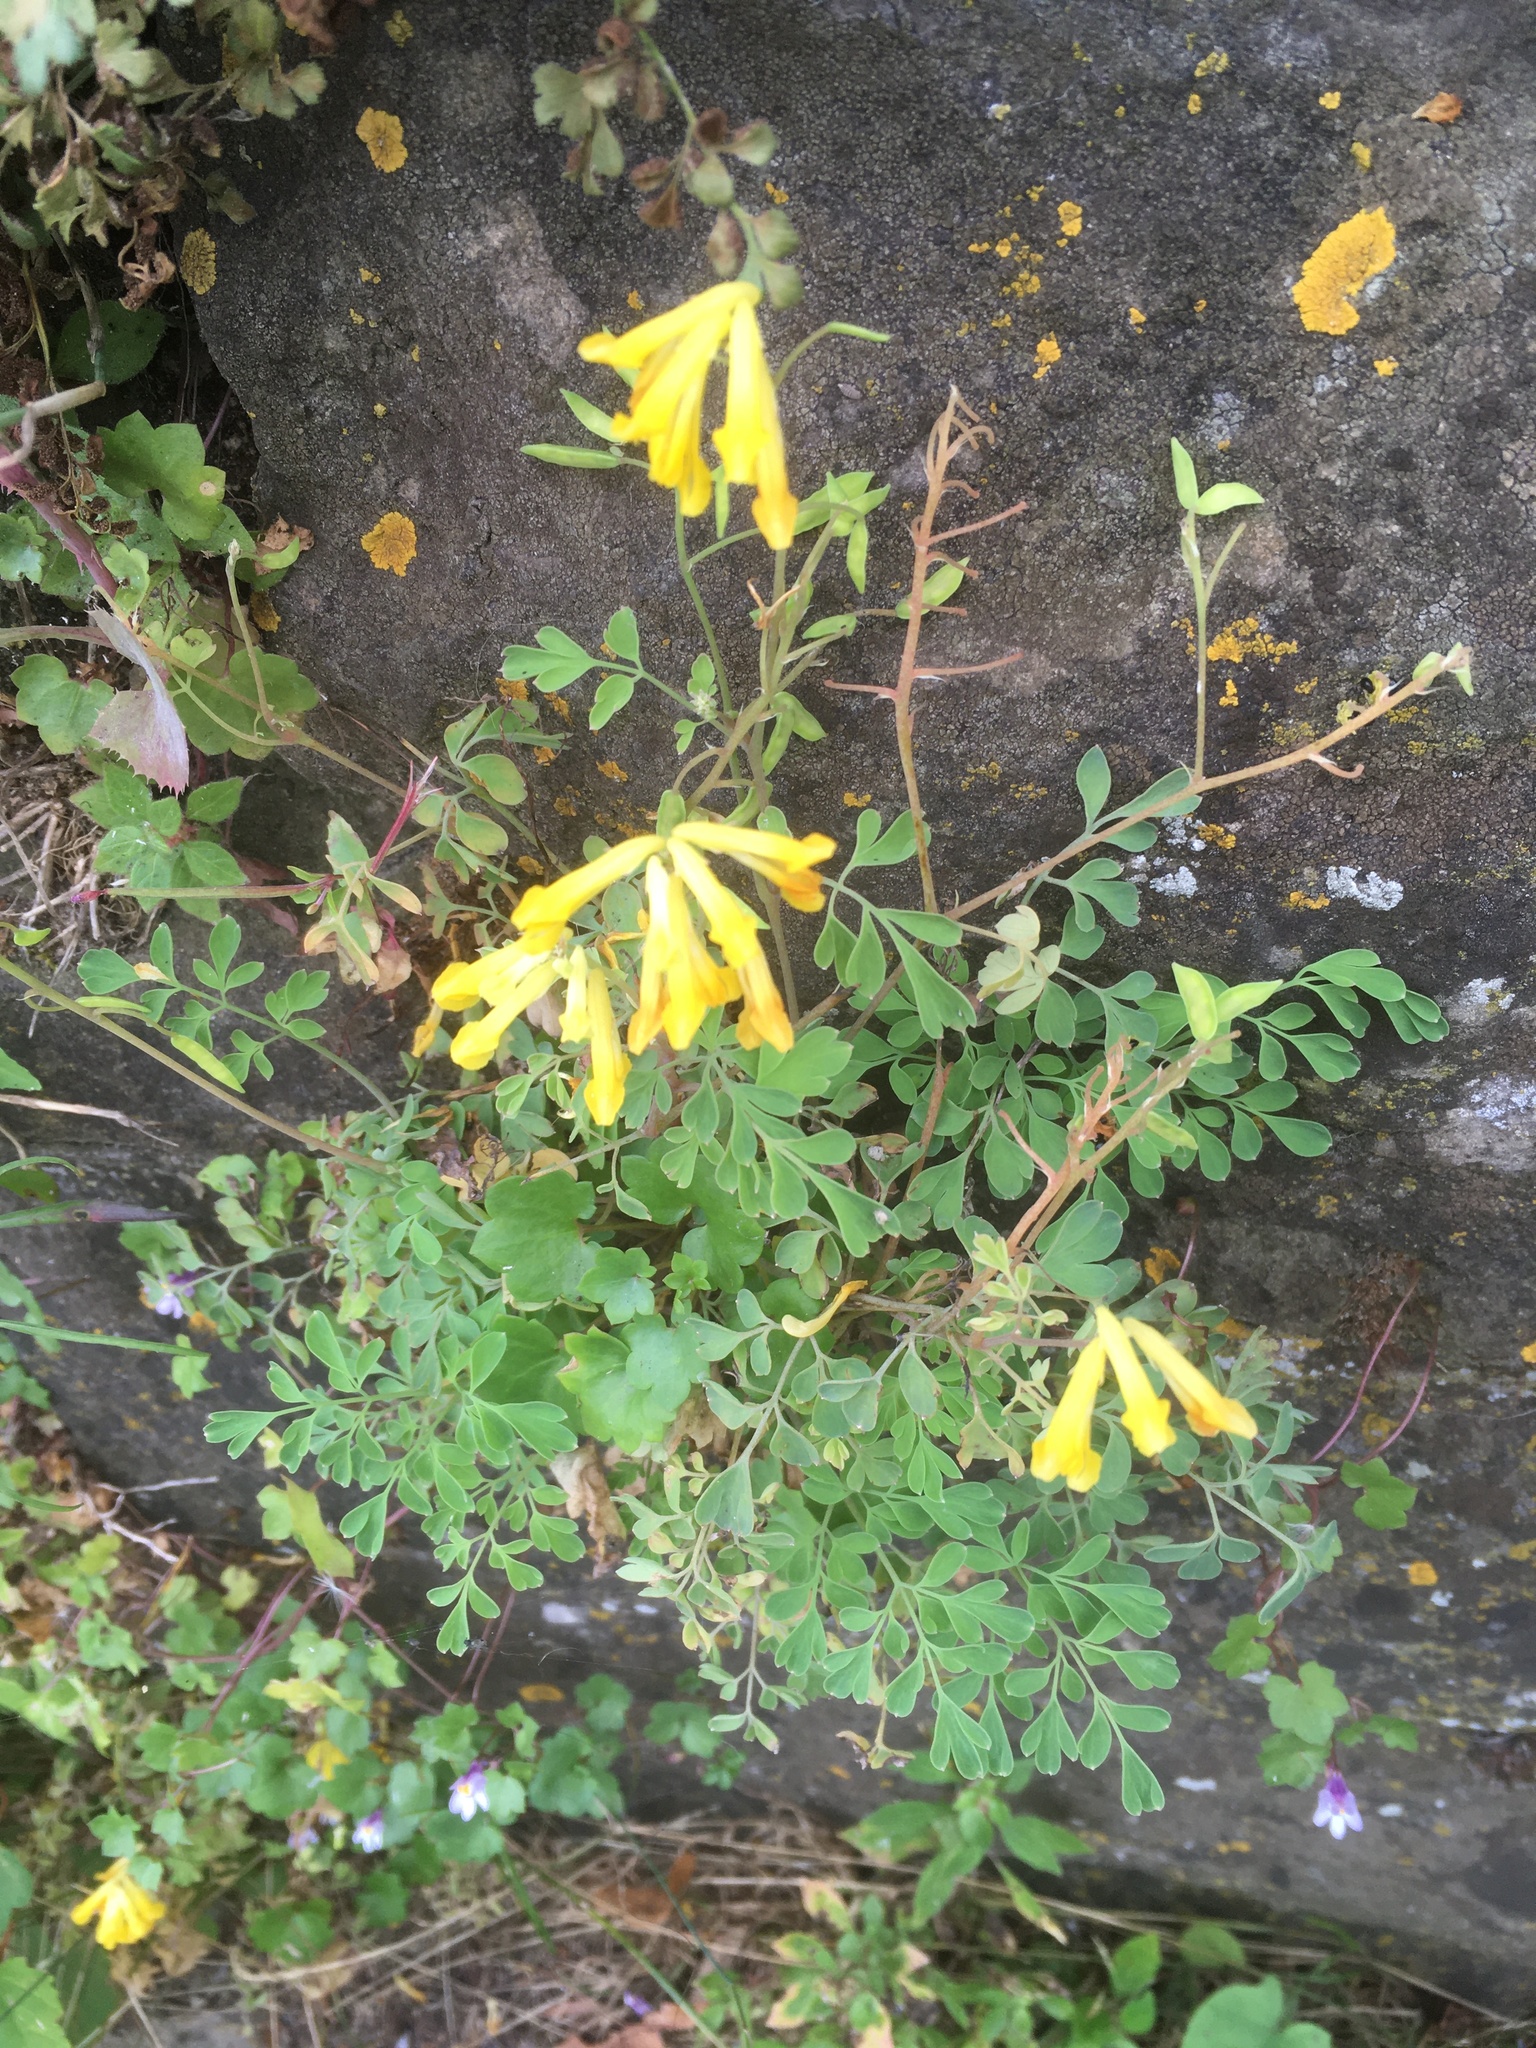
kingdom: Plantae
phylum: Tracheophyta
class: Magnoliopsida
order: Ranunculales
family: Papaveraceae
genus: Pseudofumaria
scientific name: Pseudofumaria lutea
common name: Yellow corydalis
